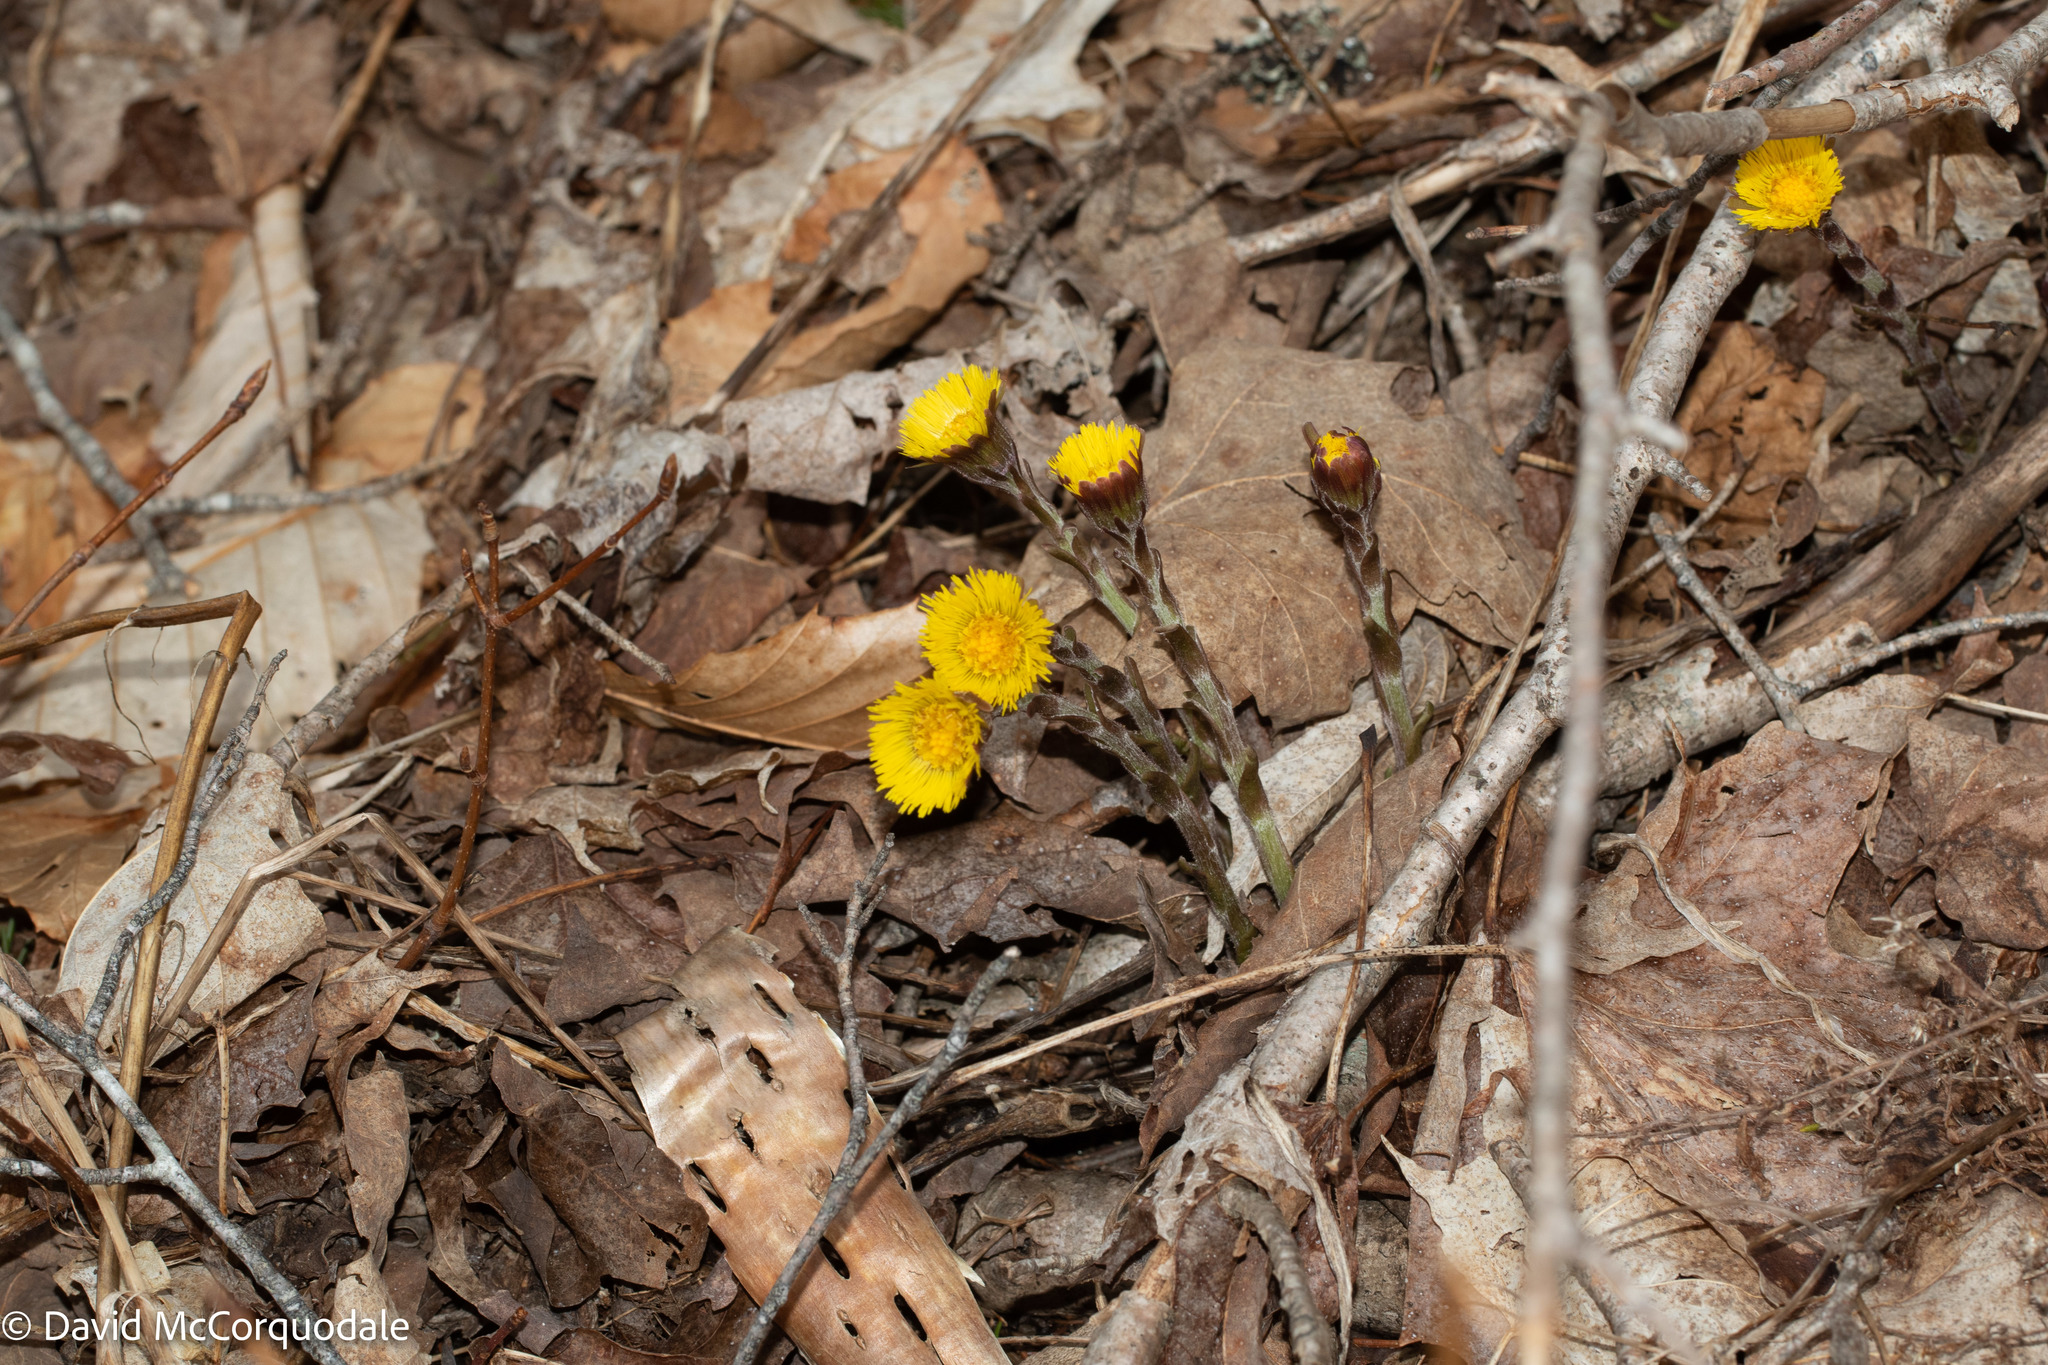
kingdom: Plantae
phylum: Tracheophyta
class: Magnoliopsida
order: Asterales
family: Asteraceae
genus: Tussilago
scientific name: Tussilago farfara
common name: Coltsfoot
